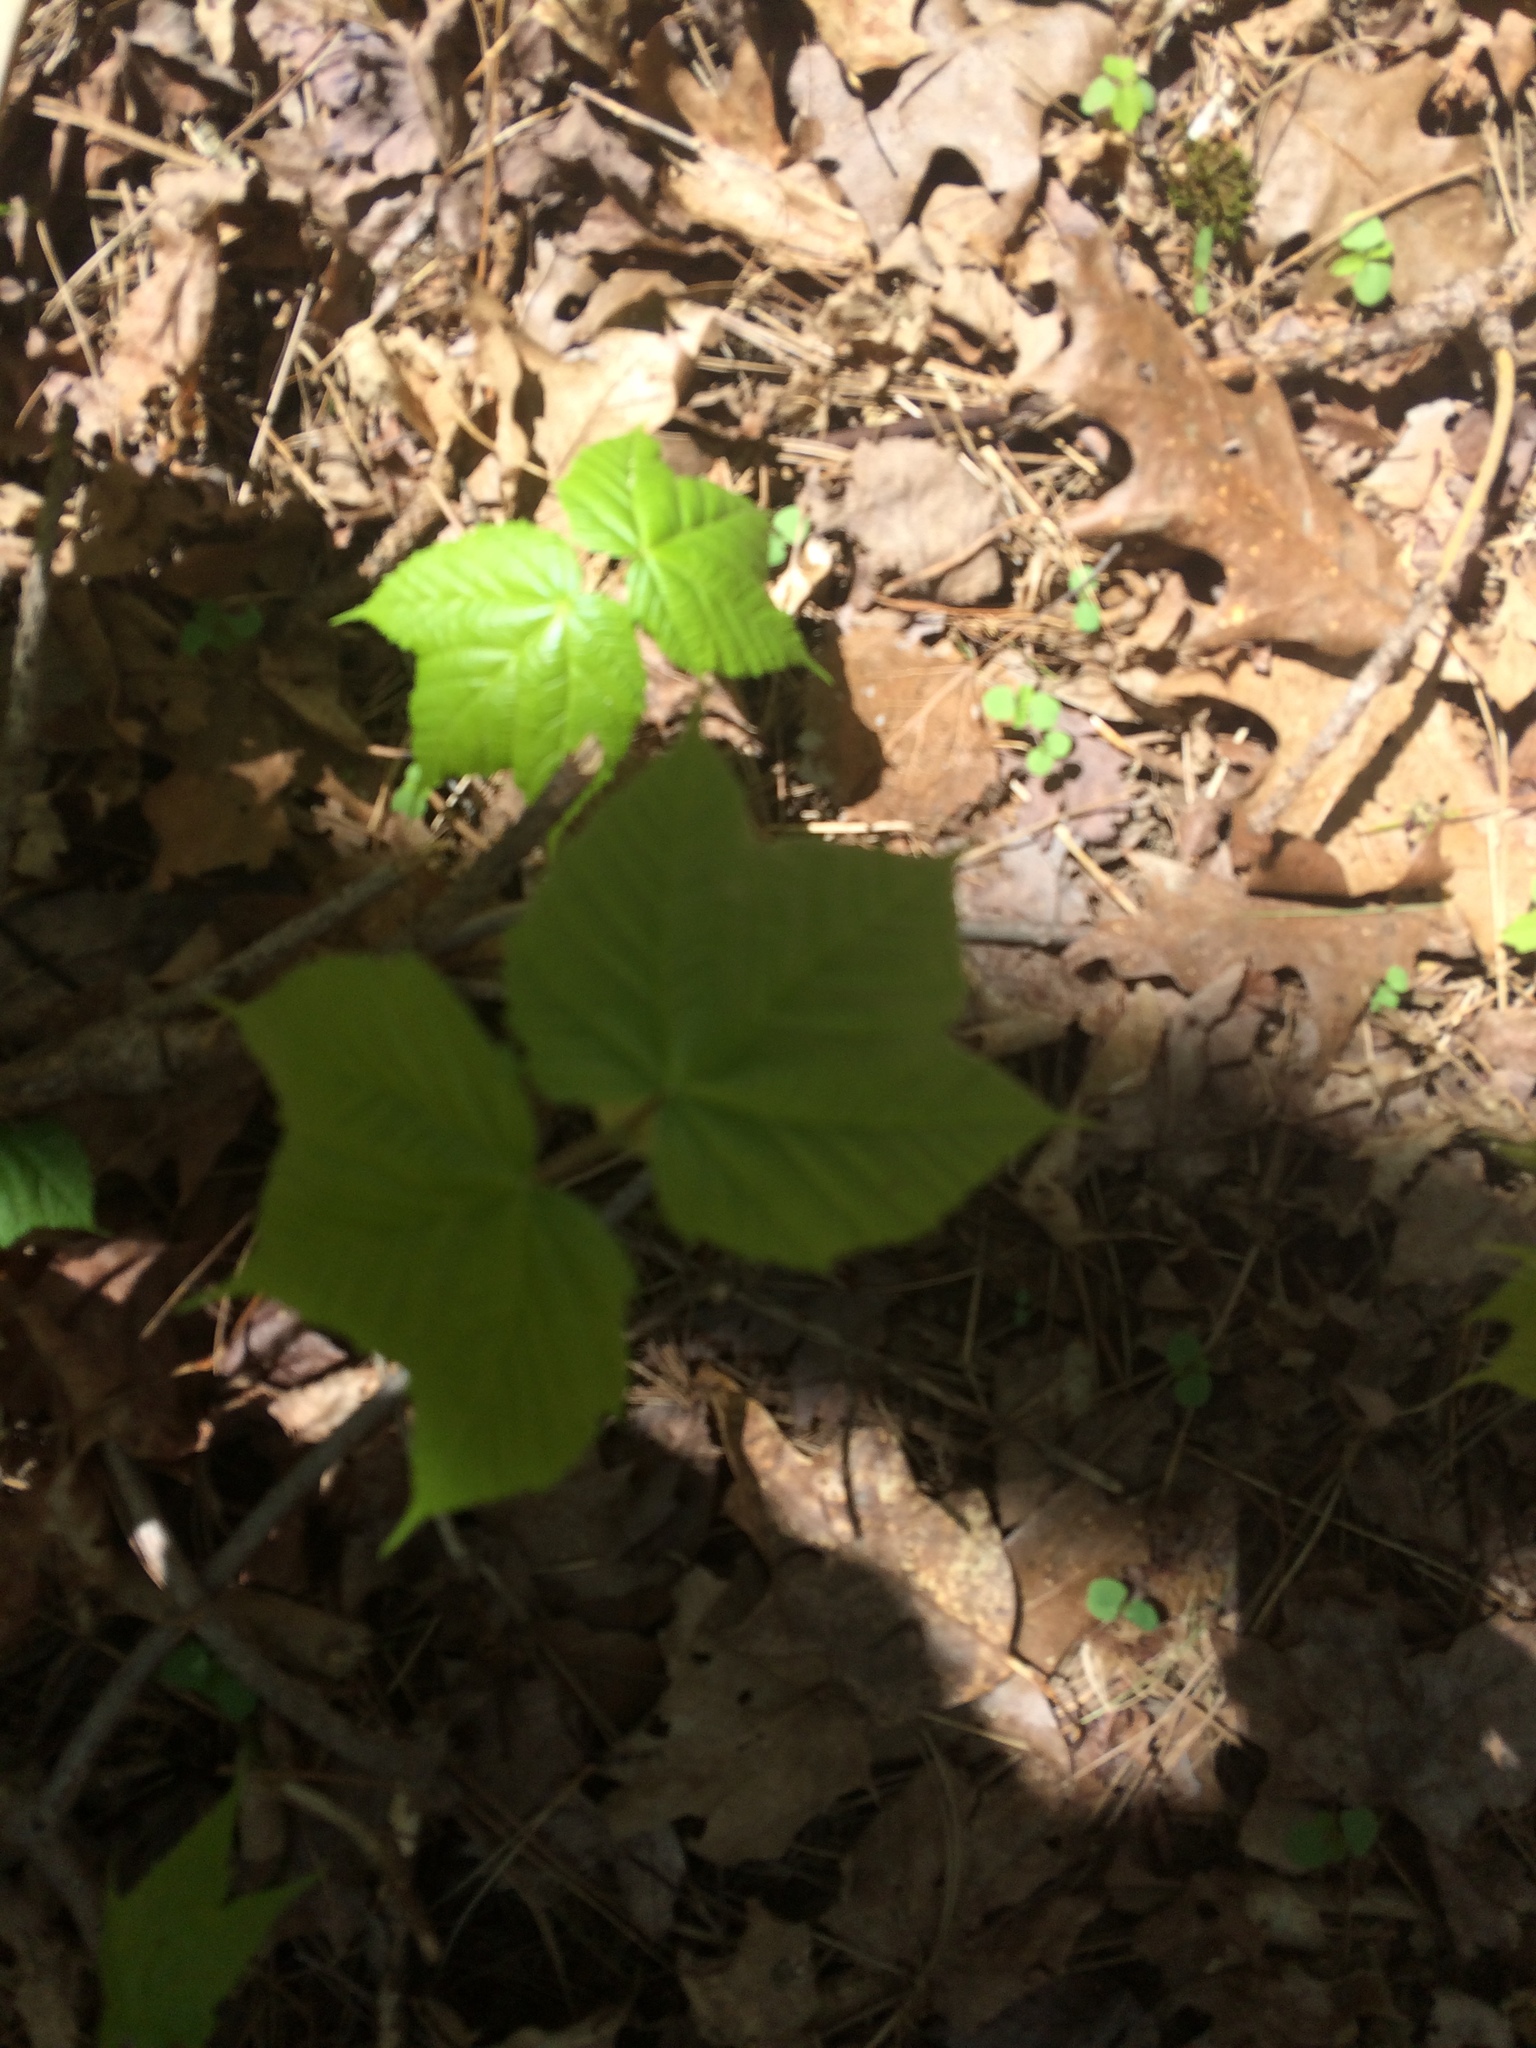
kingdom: Plantae
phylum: Tracheophyta
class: Magnoliopsida
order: Sapindales
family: Sapindaceae
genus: Acer
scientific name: Acer pensylvanicum
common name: Moosewood
